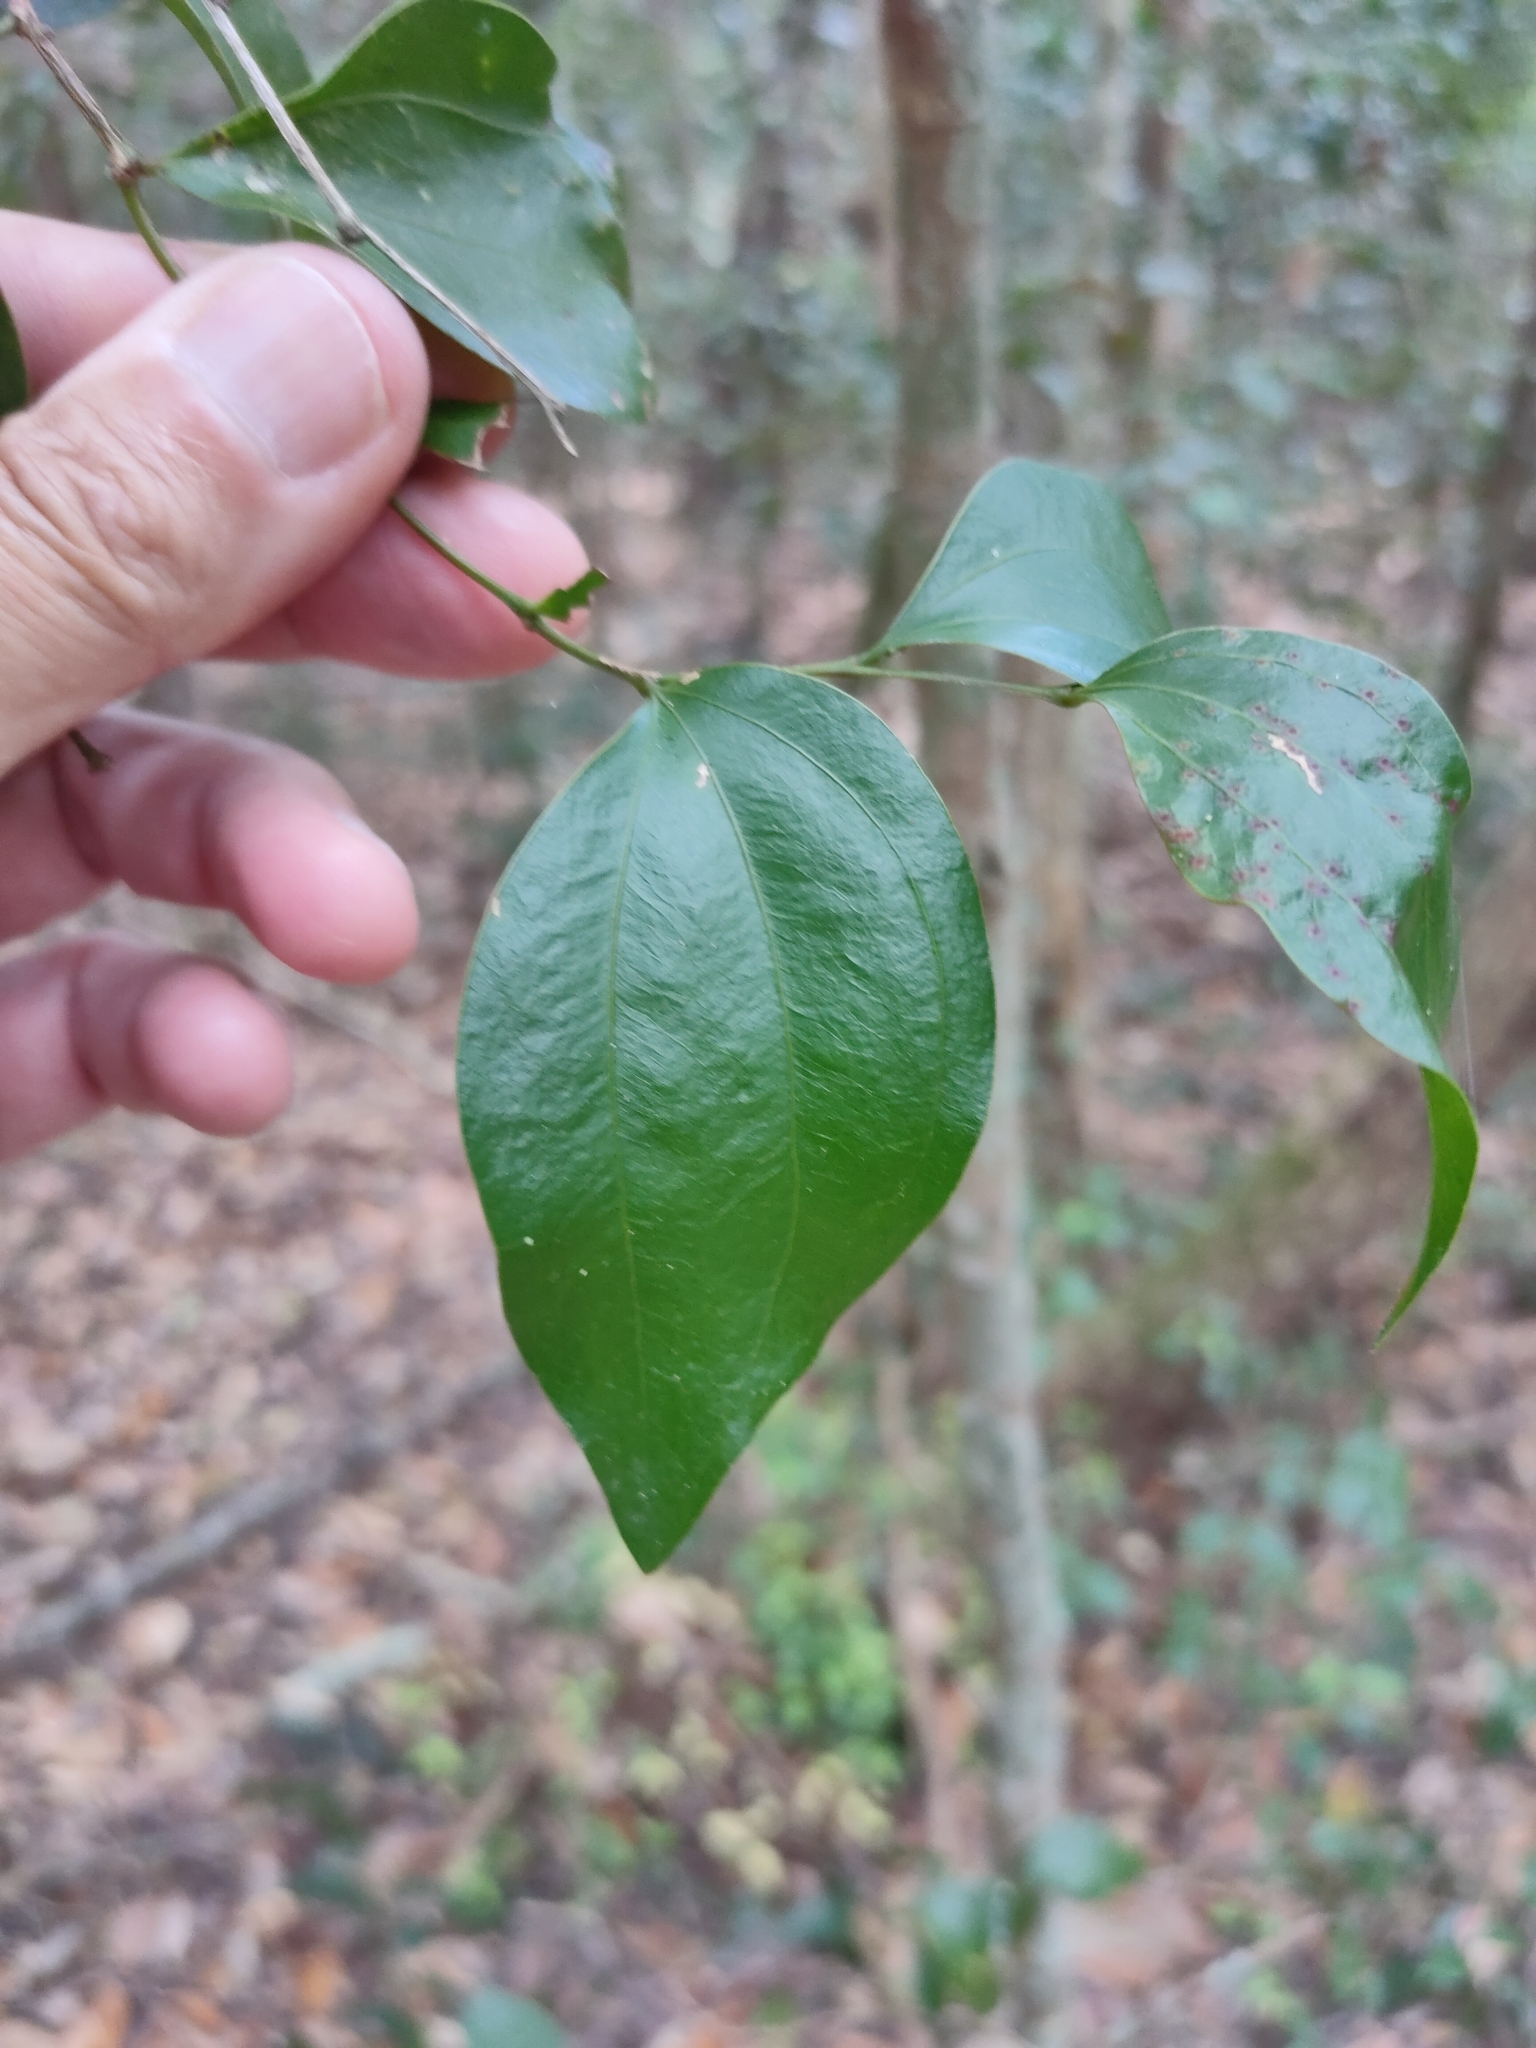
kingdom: Plantae
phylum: Tracheophyta
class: Magnoliopsida
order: Fabales
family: Fabaceae
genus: Acacia
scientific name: Acacia bakeri
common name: Scrub wattle
